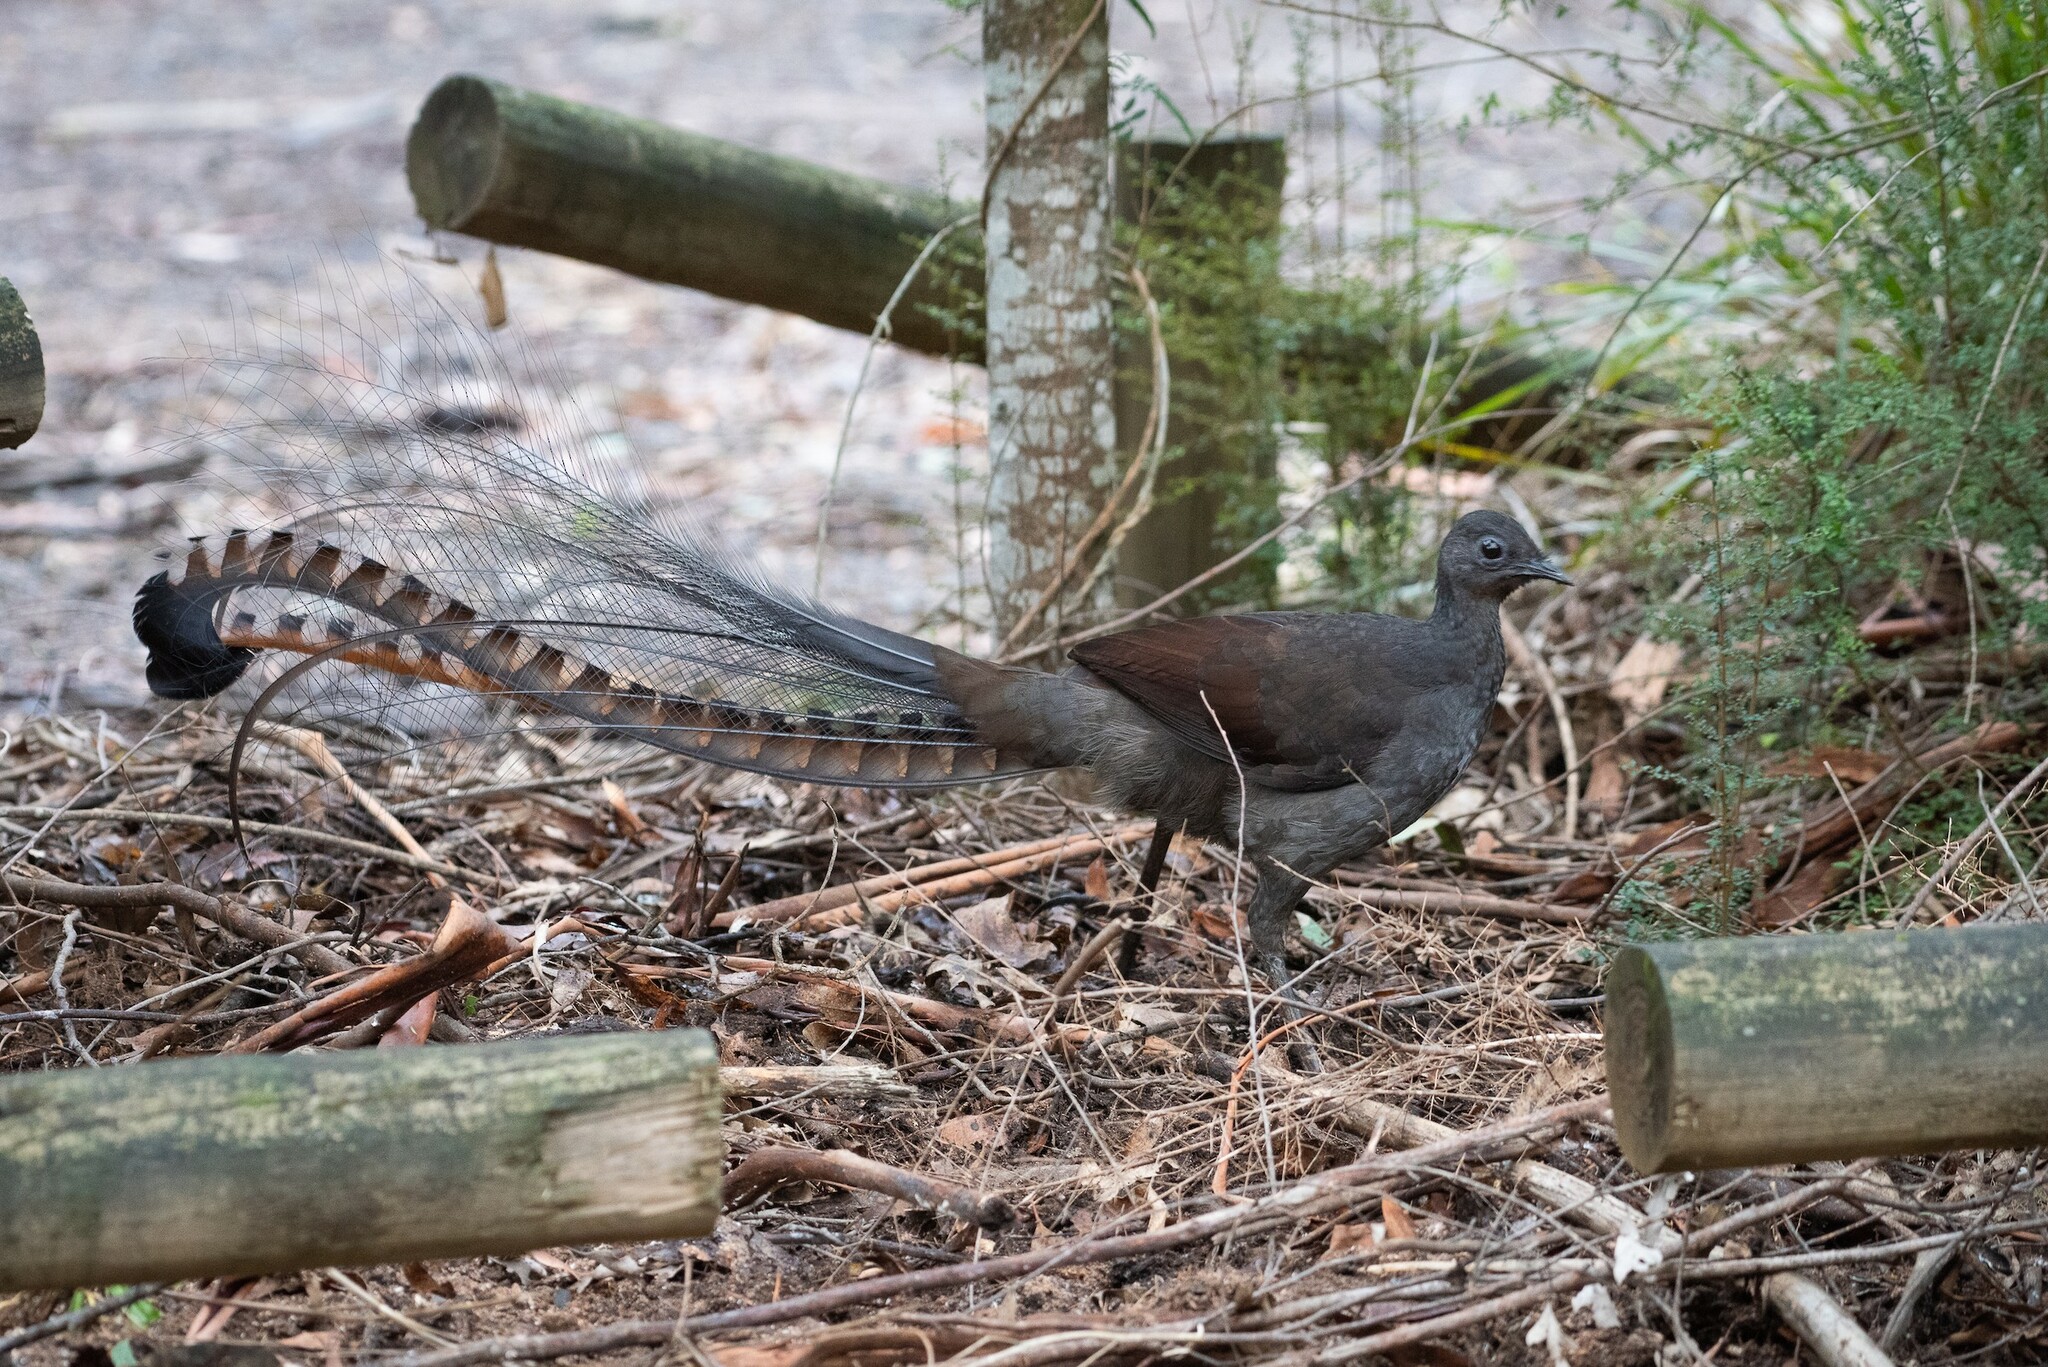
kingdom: Animalia
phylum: Chordata
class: Aves
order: Passeriformes
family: Menuridae
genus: Menura
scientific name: Menura novaehollandiae
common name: Superb lyrebird
